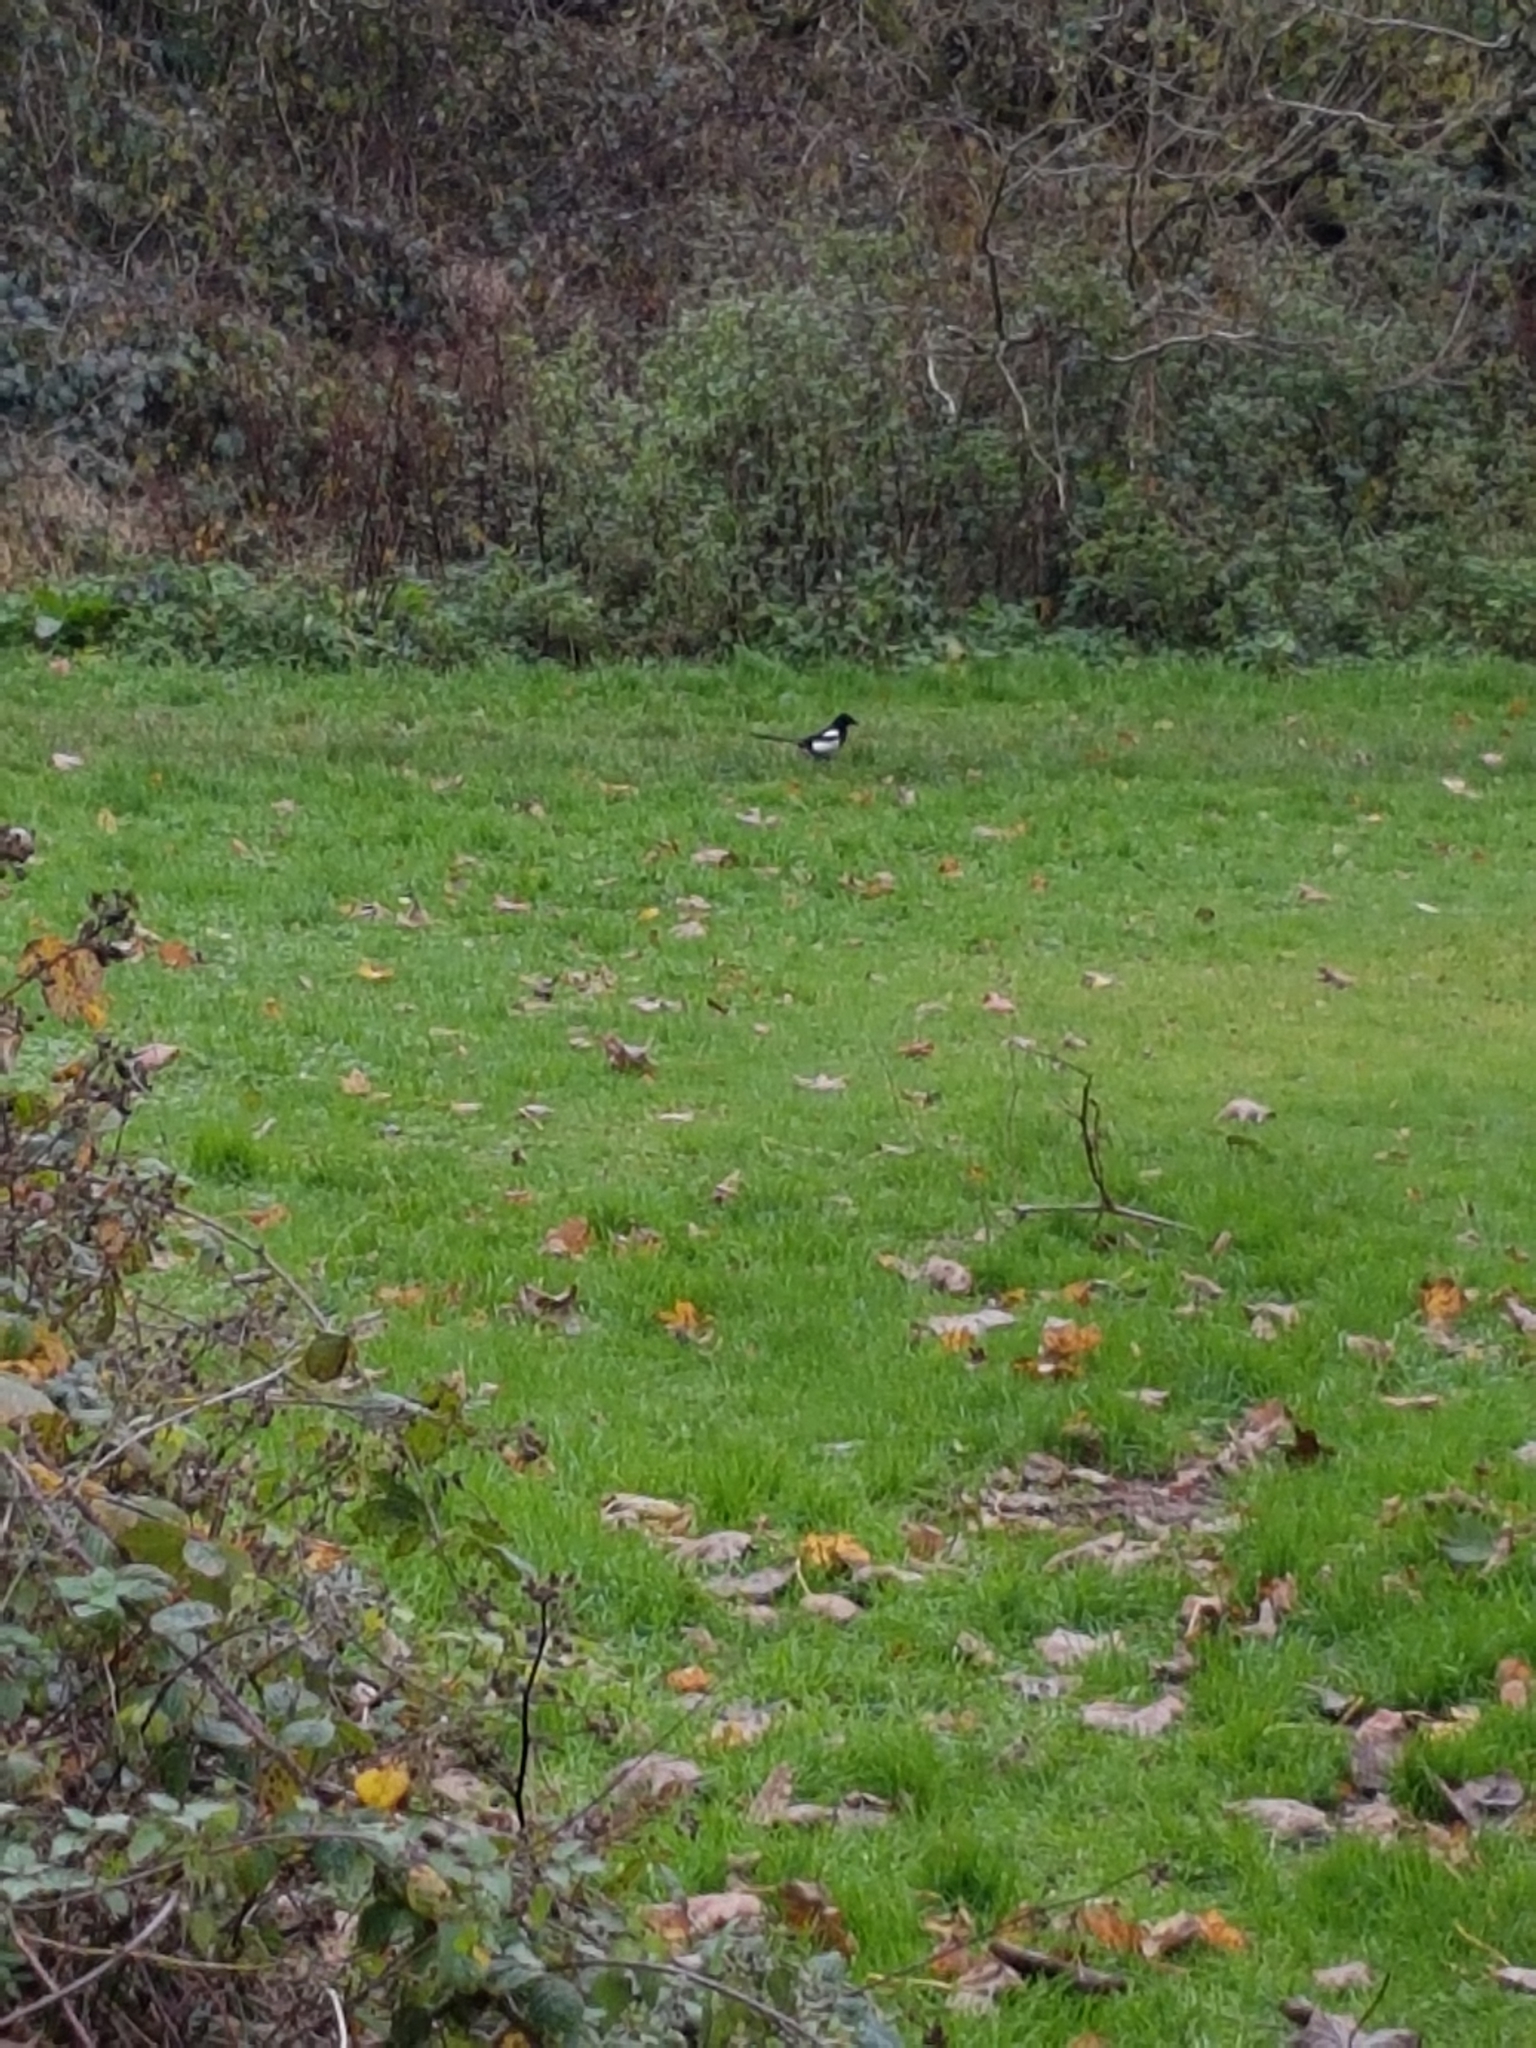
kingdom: Animalia
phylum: Chordata
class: Aves
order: Passeriformes
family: Corvidae
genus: Pica
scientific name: Pica pica
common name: Eurasian magpie
